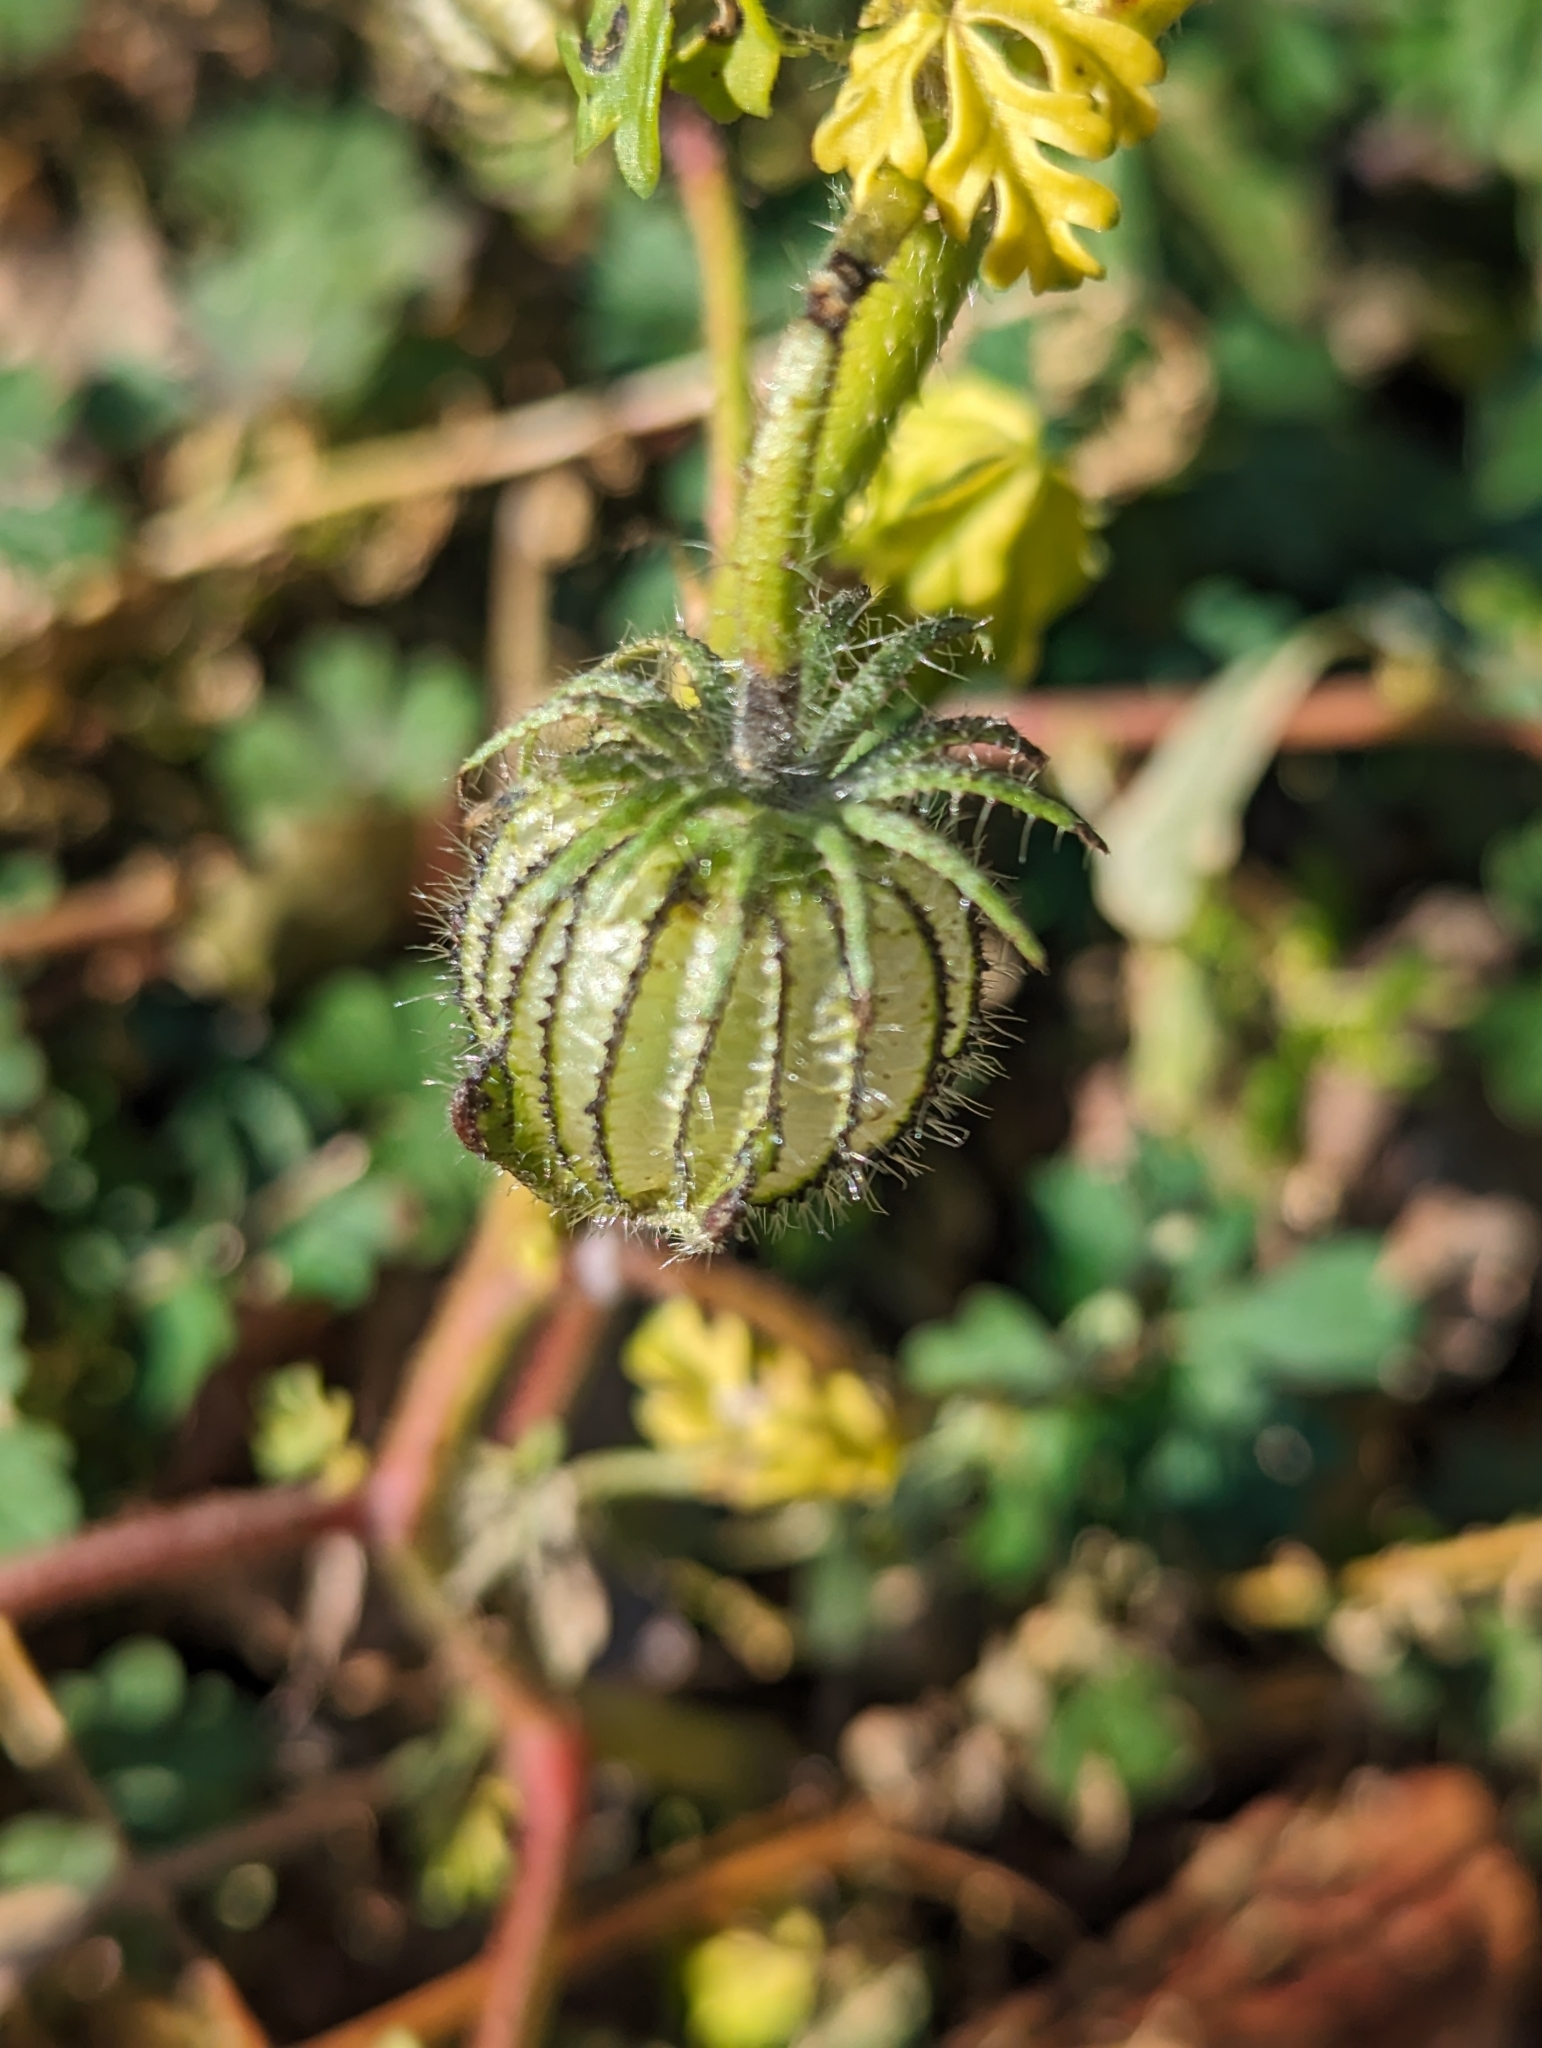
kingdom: Plantae
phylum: Tracheophyta
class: Magnoliopsida
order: Malvales
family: Malvaceae
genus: Hibiscus
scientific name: Hibiscus trionum
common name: Bladder ketmia
